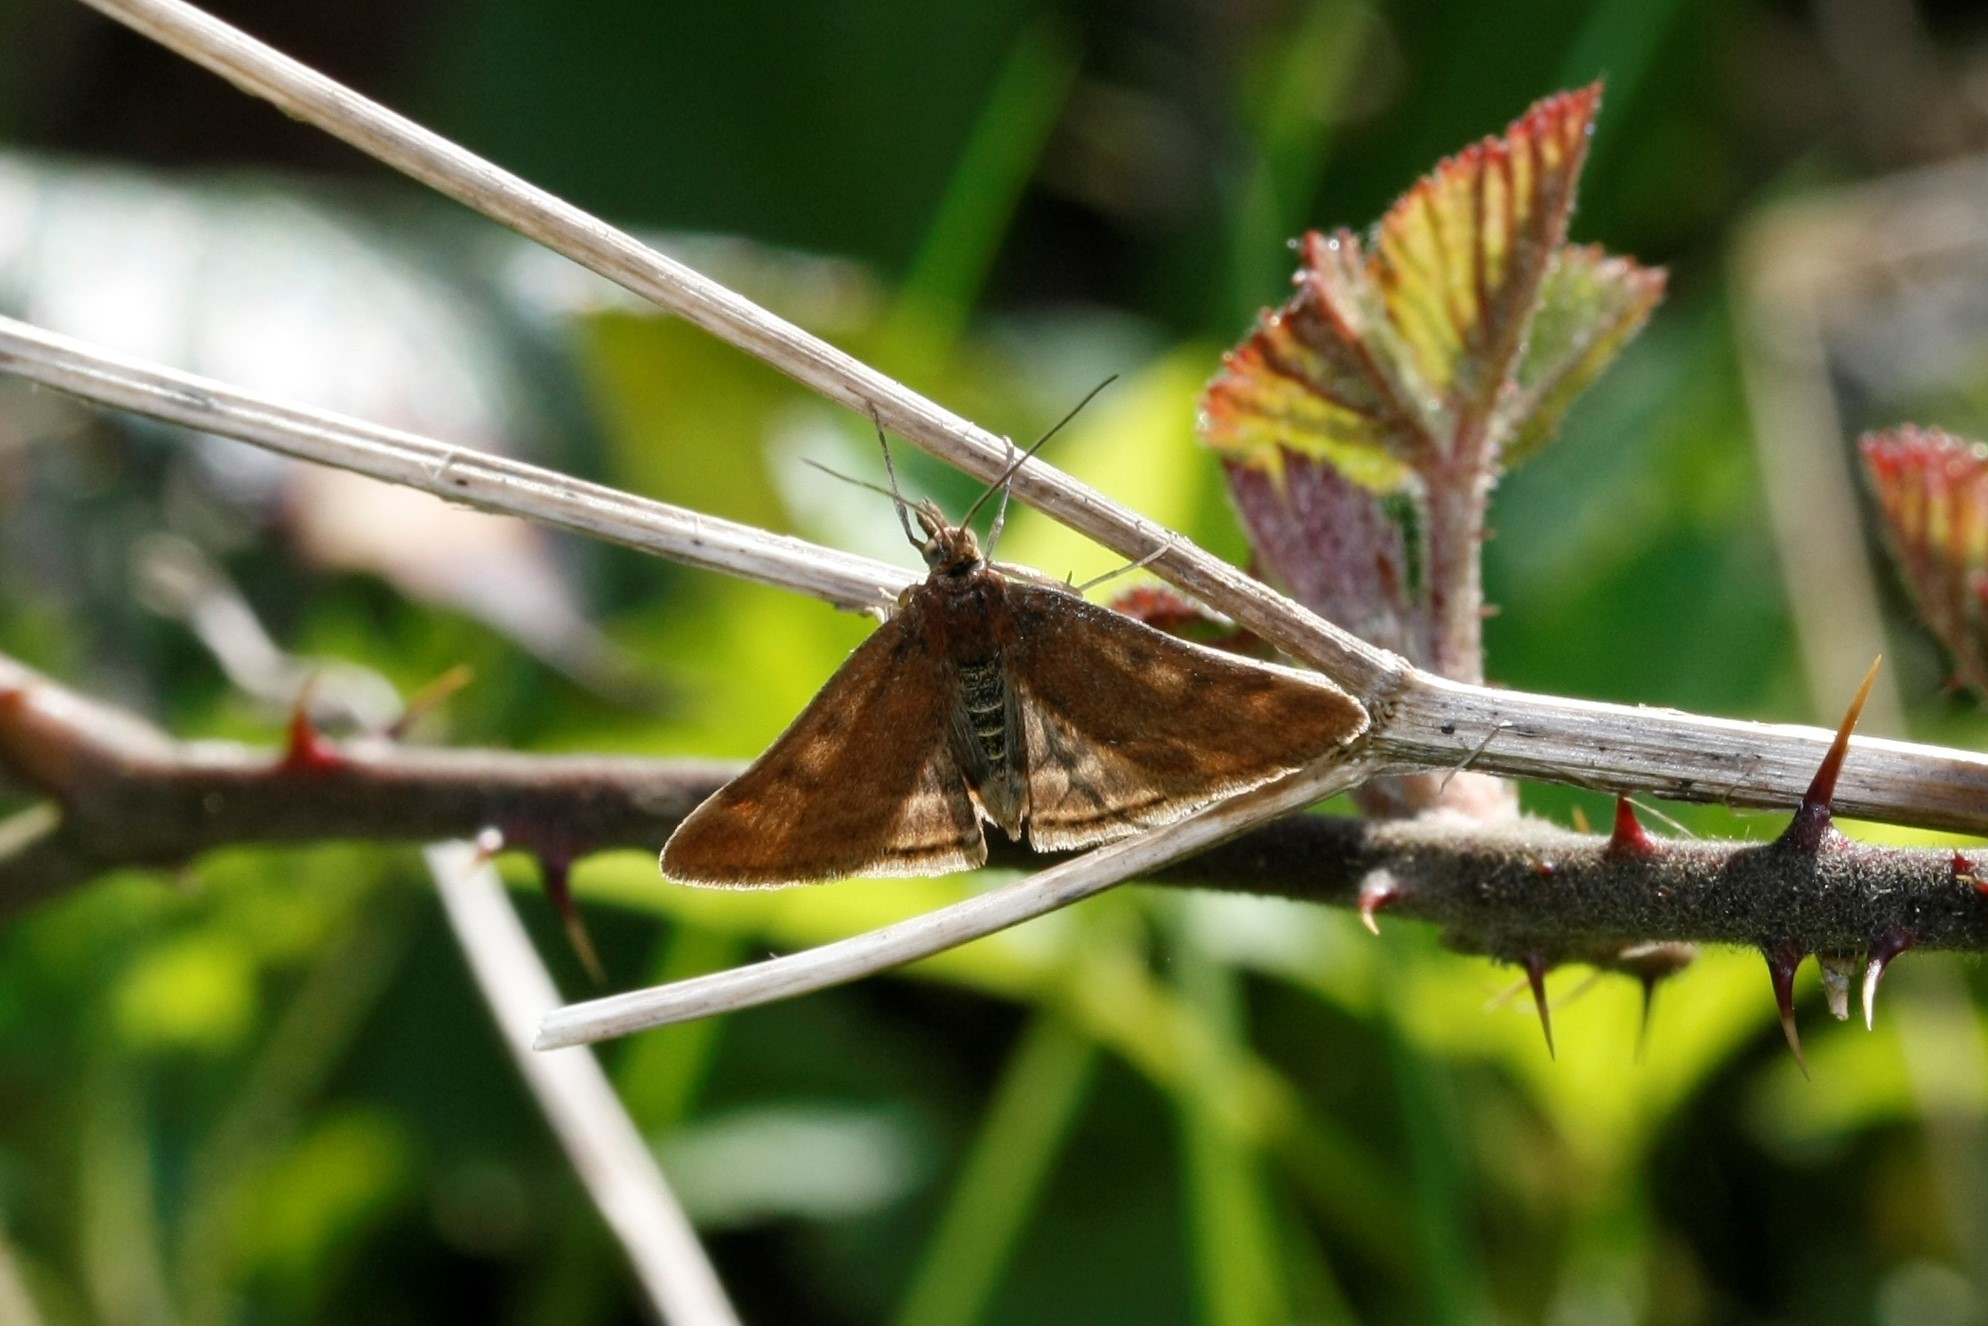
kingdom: Animalia
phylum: Arthropoda
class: Insecta
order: Lepidoptera
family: Crambidae
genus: Pyrausta
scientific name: Pyrausta despicata
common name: Straw-barred pearl
